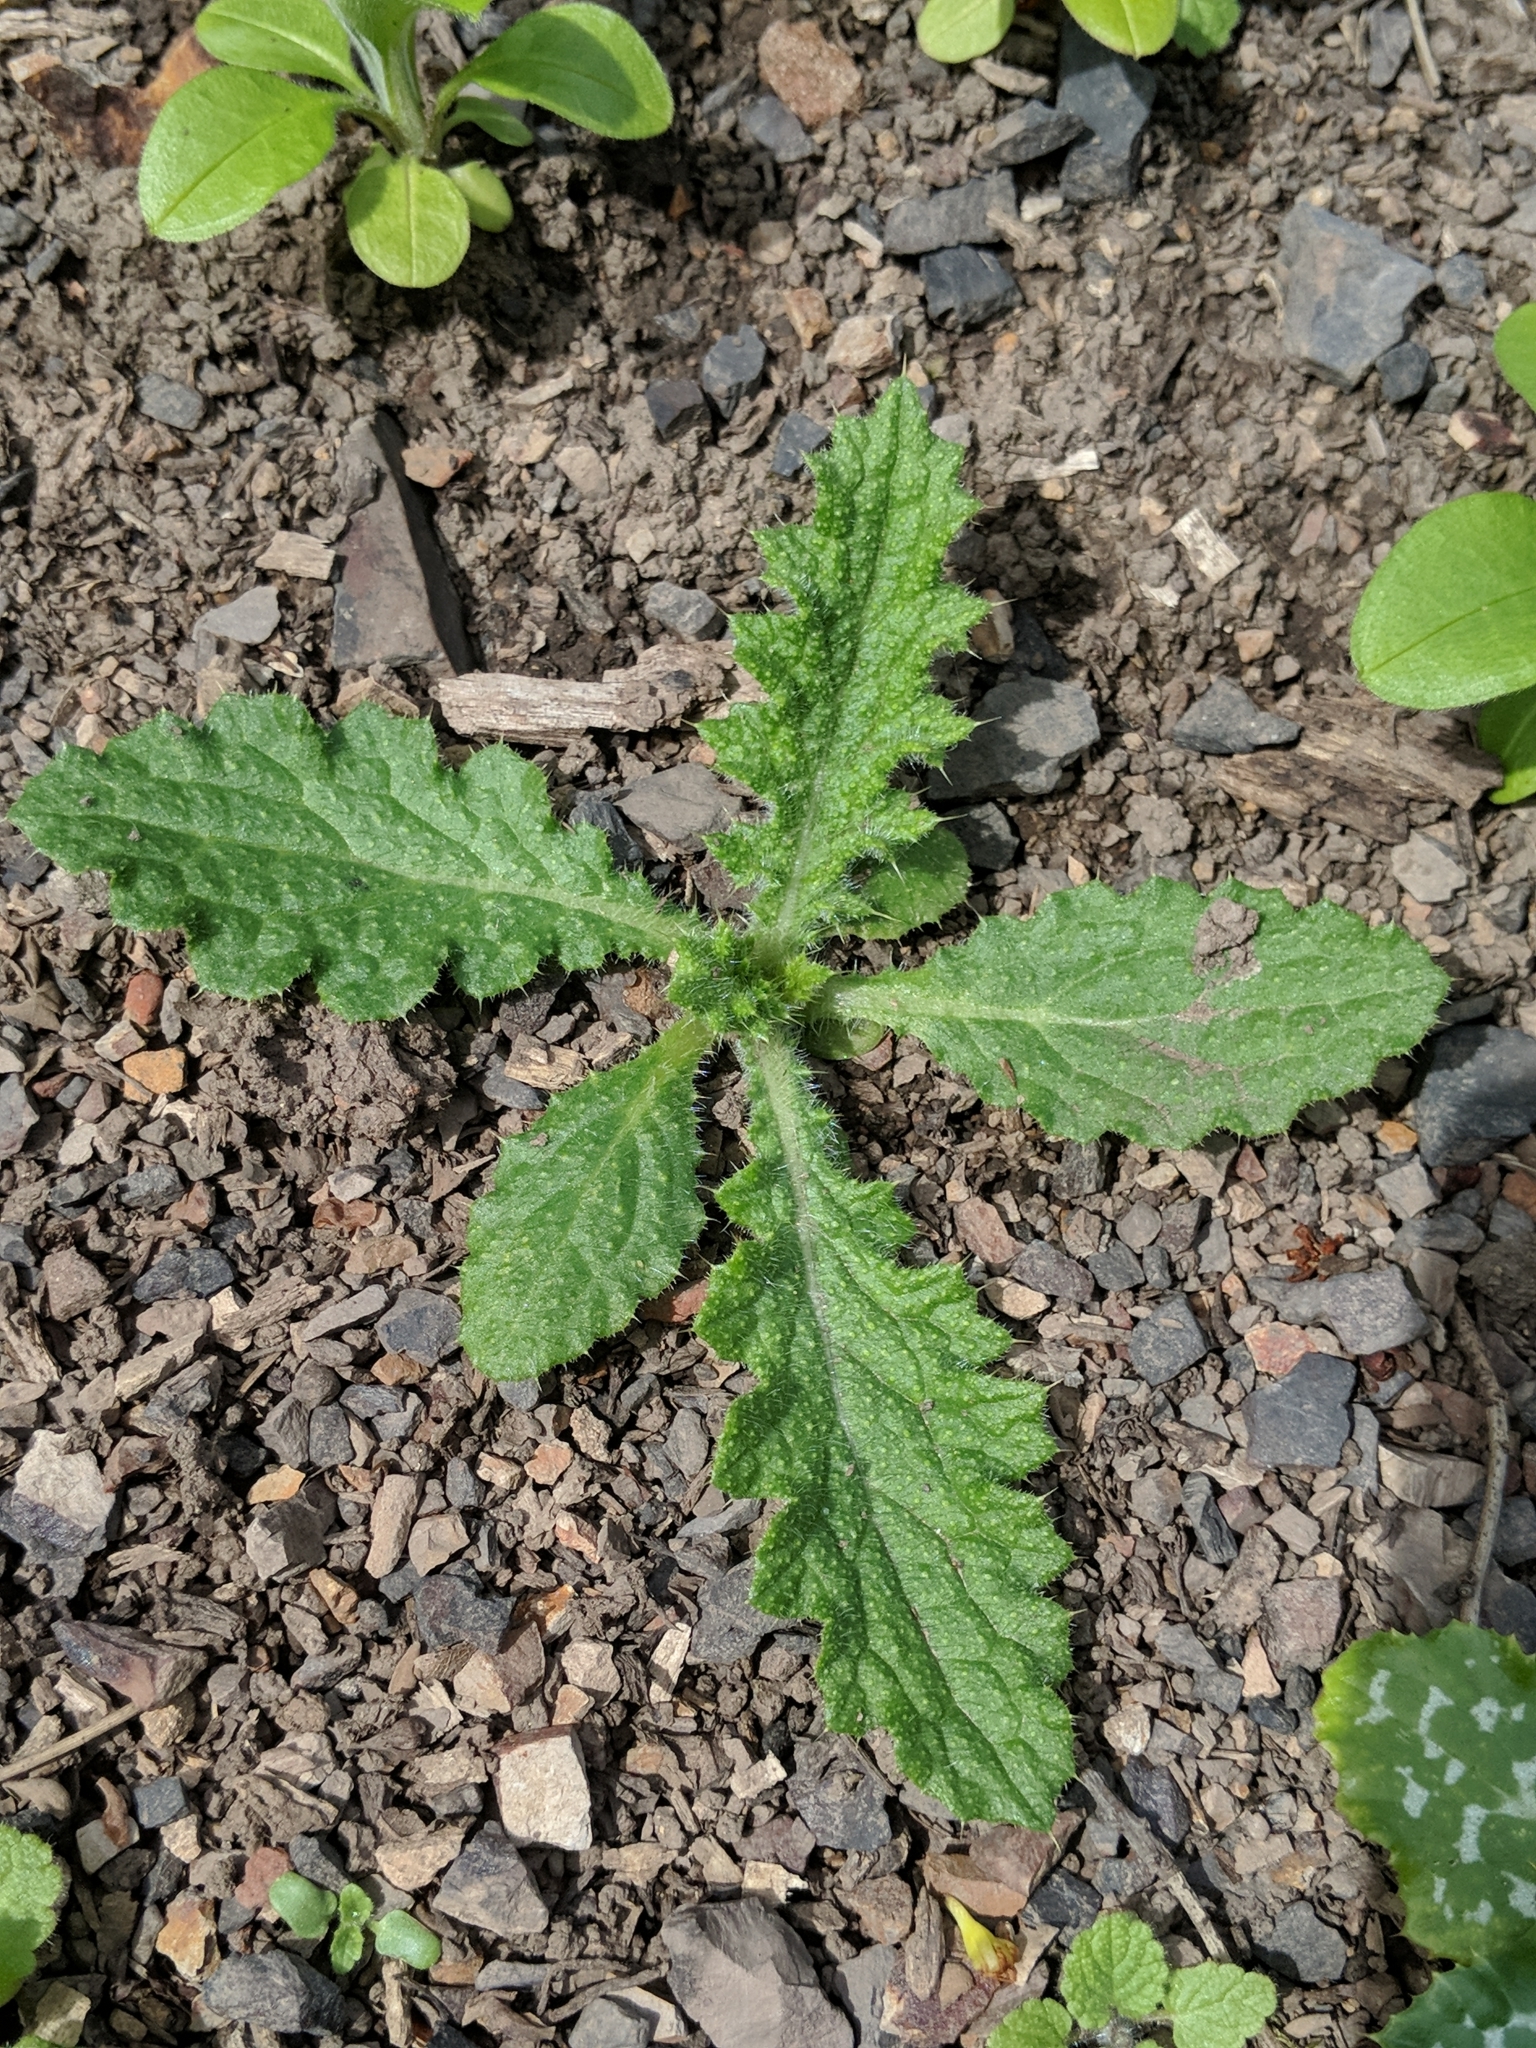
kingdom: Plantae
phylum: Tracheophyta
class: Magnoliopsida
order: Asterales
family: Asteraceae
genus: Cirsium
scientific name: Cirsium vulgare
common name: Bull thistle
